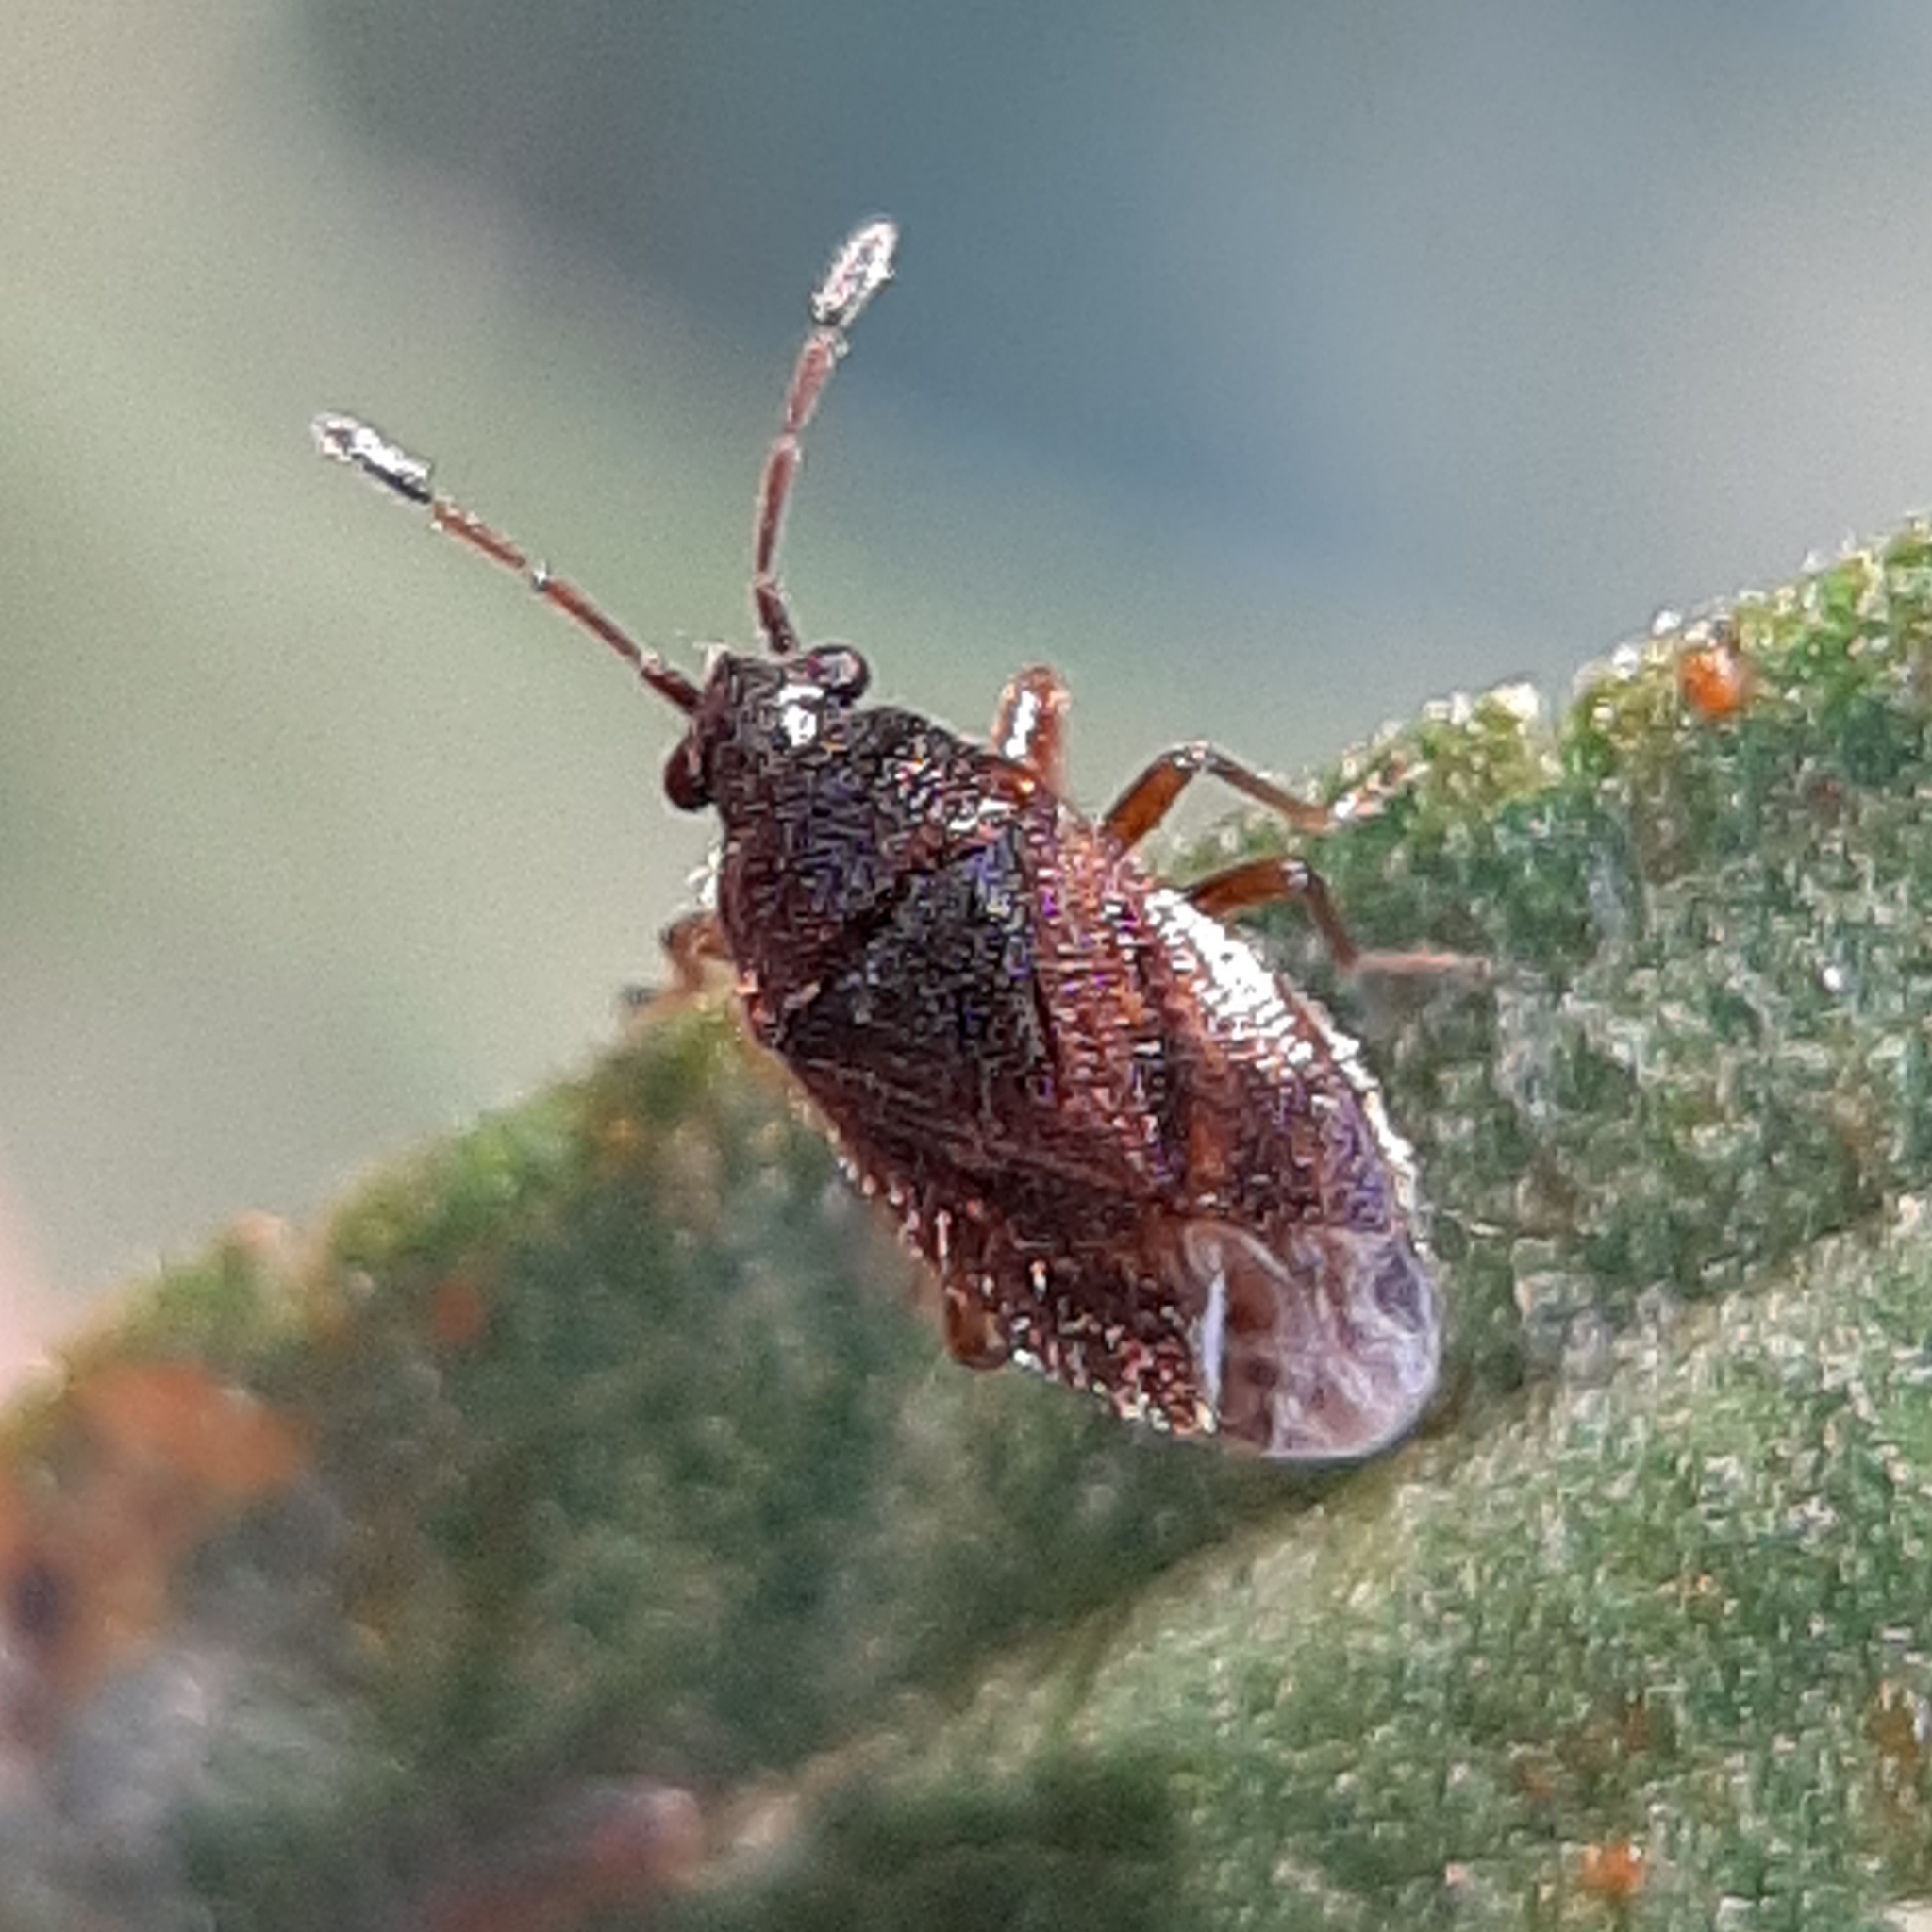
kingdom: Animalia
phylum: Arthropoda
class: Insecta
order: Hemiptera
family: Rhyparochromidae
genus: Stygnocoris
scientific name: Stygnocoris sabulosus
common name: Hairy groundbug
